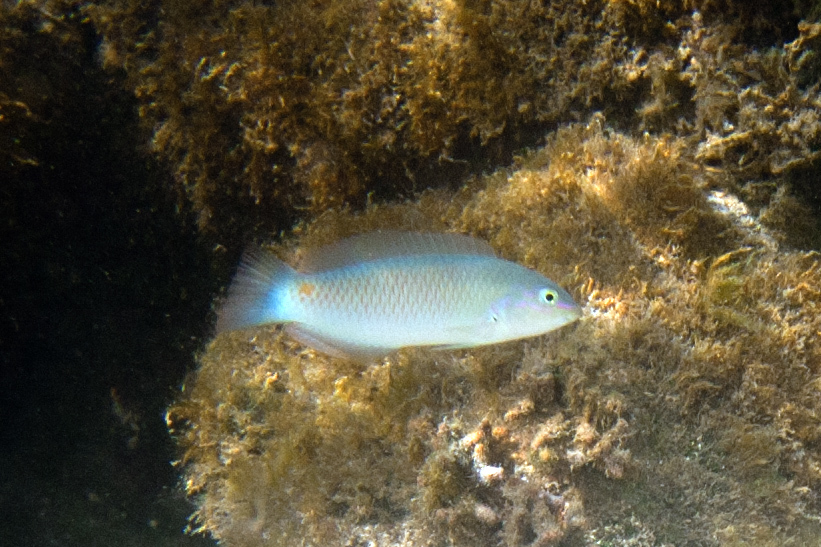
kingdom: Animalia
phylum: Chordata
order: Perciformes
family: Labridae
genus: Halichoeres
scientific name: Halichoeres trimaculatus
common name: Three-spot wrasse
